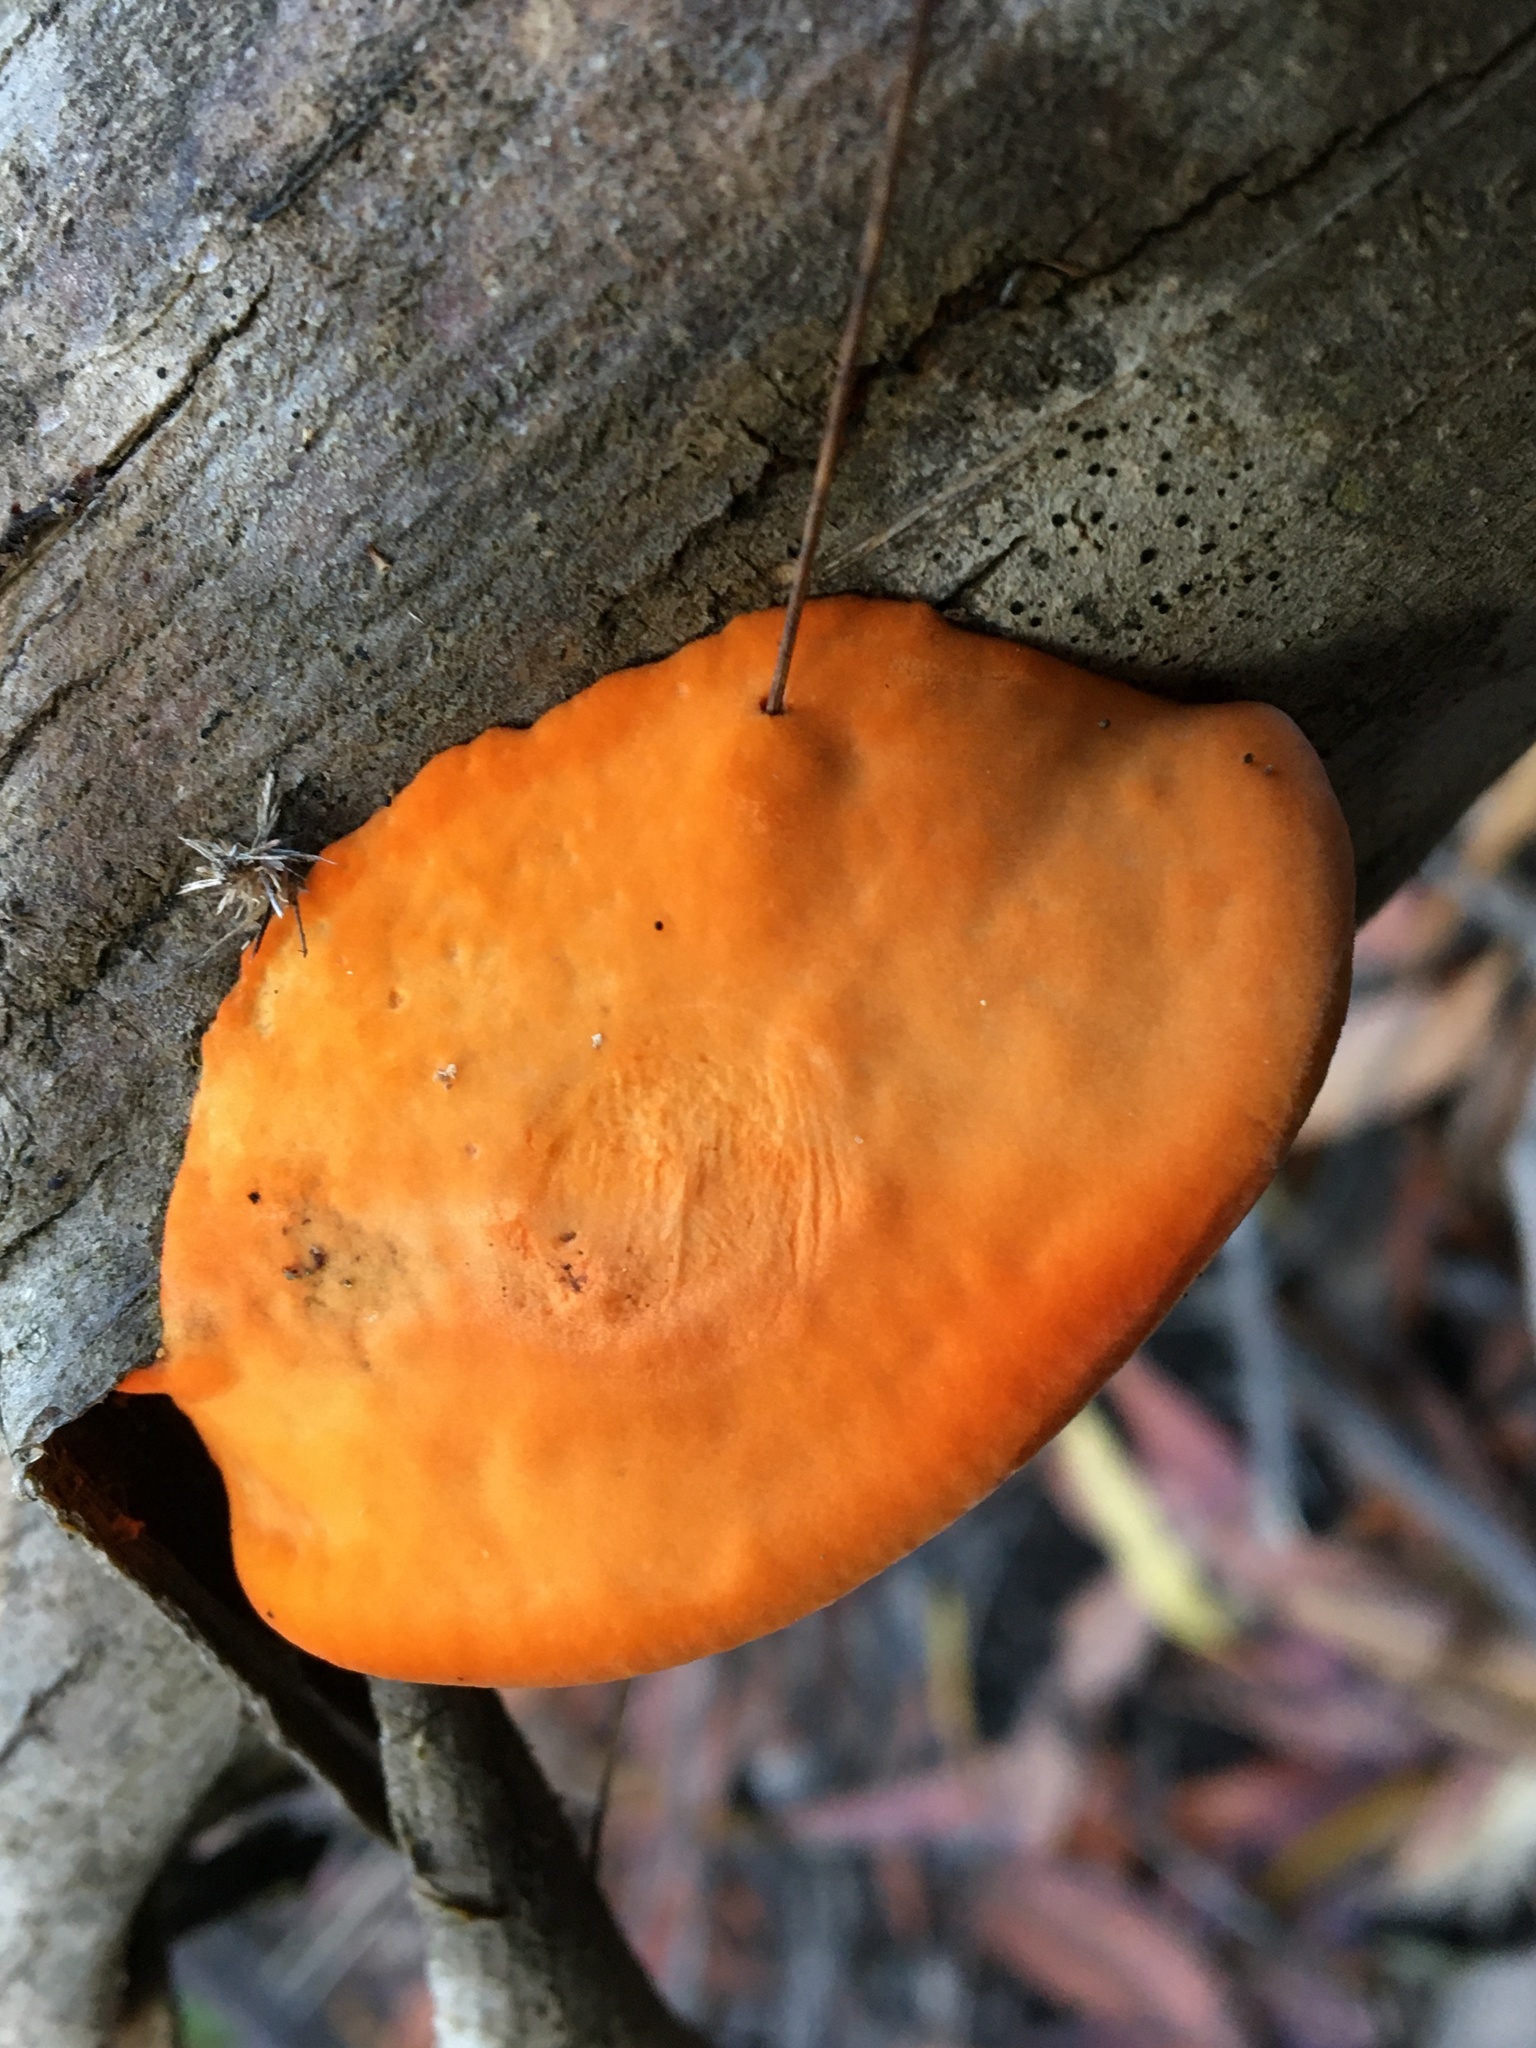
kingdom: Fungi
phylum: Basidiomycota
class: Agaricomycetes
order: Polyporales
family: Polyporaceae
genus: Trametes
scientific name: Trametes coccinea
